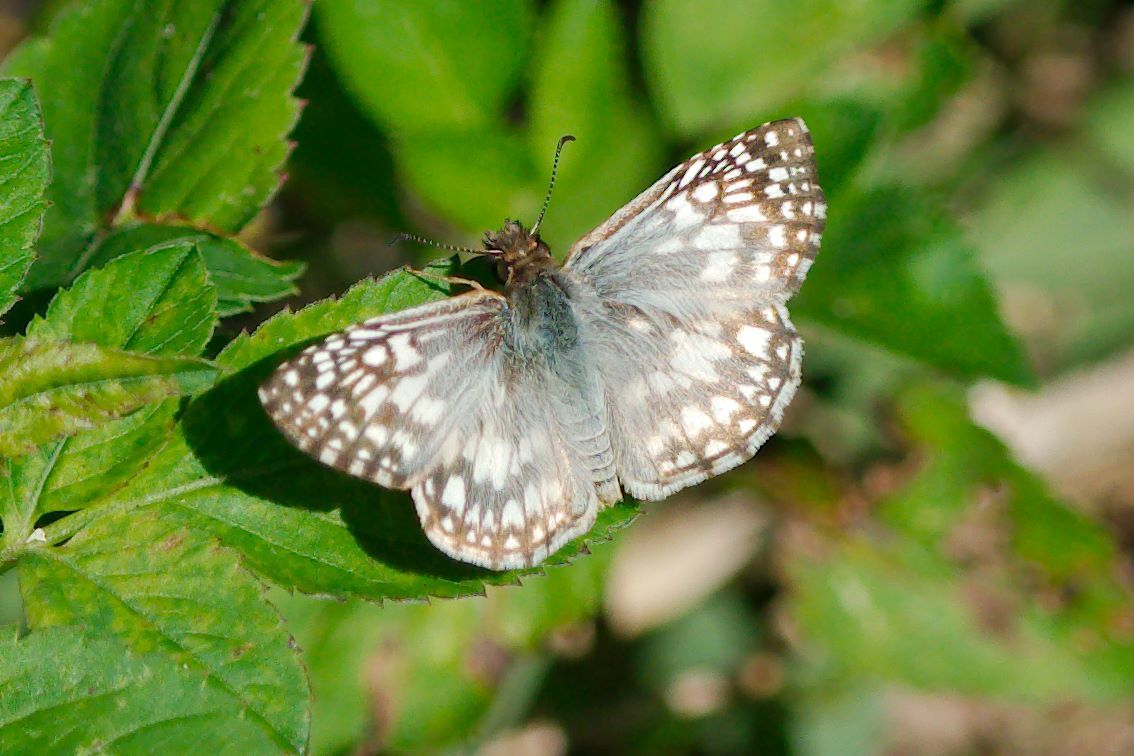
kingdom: Animalia
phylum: Arthropoda
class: Insecta
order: Lepidoptera
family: Hesperiidae
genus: Pyrgus
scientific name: Pyrgus oileus
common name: Tropical checkered-skipper
